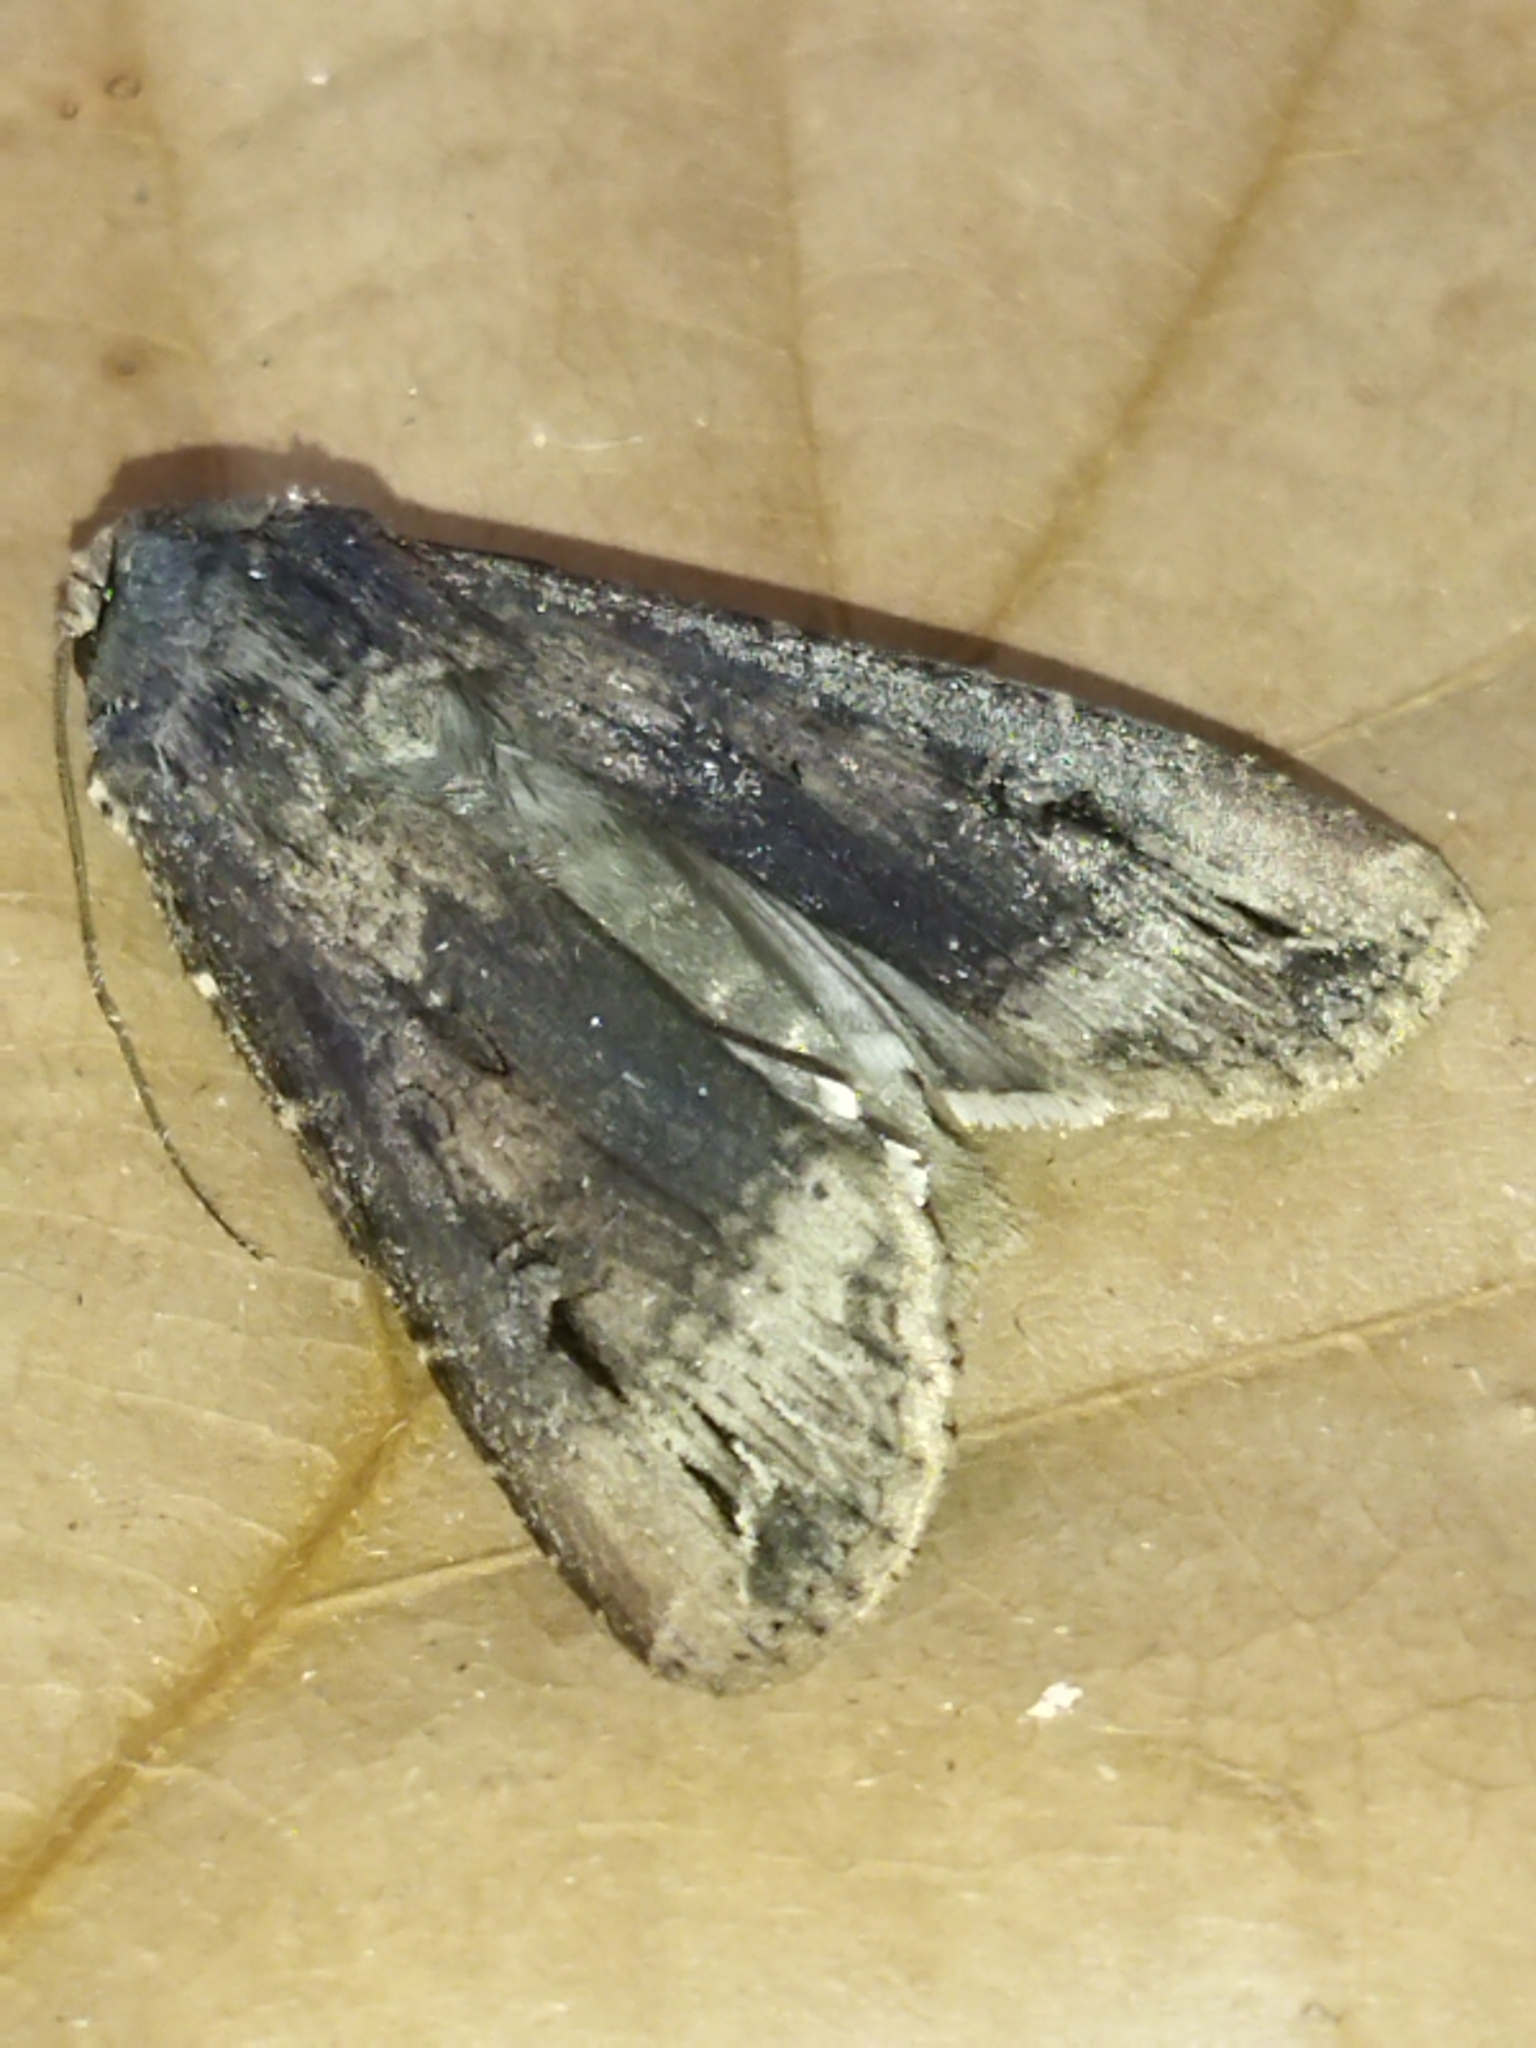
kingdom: Animalia
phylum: Arthropoda
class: Insecta
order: Lepidoptera
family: Noctuidae
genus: Agrotis
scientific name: Agrotis ipsilon
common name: Dark sword-grass
